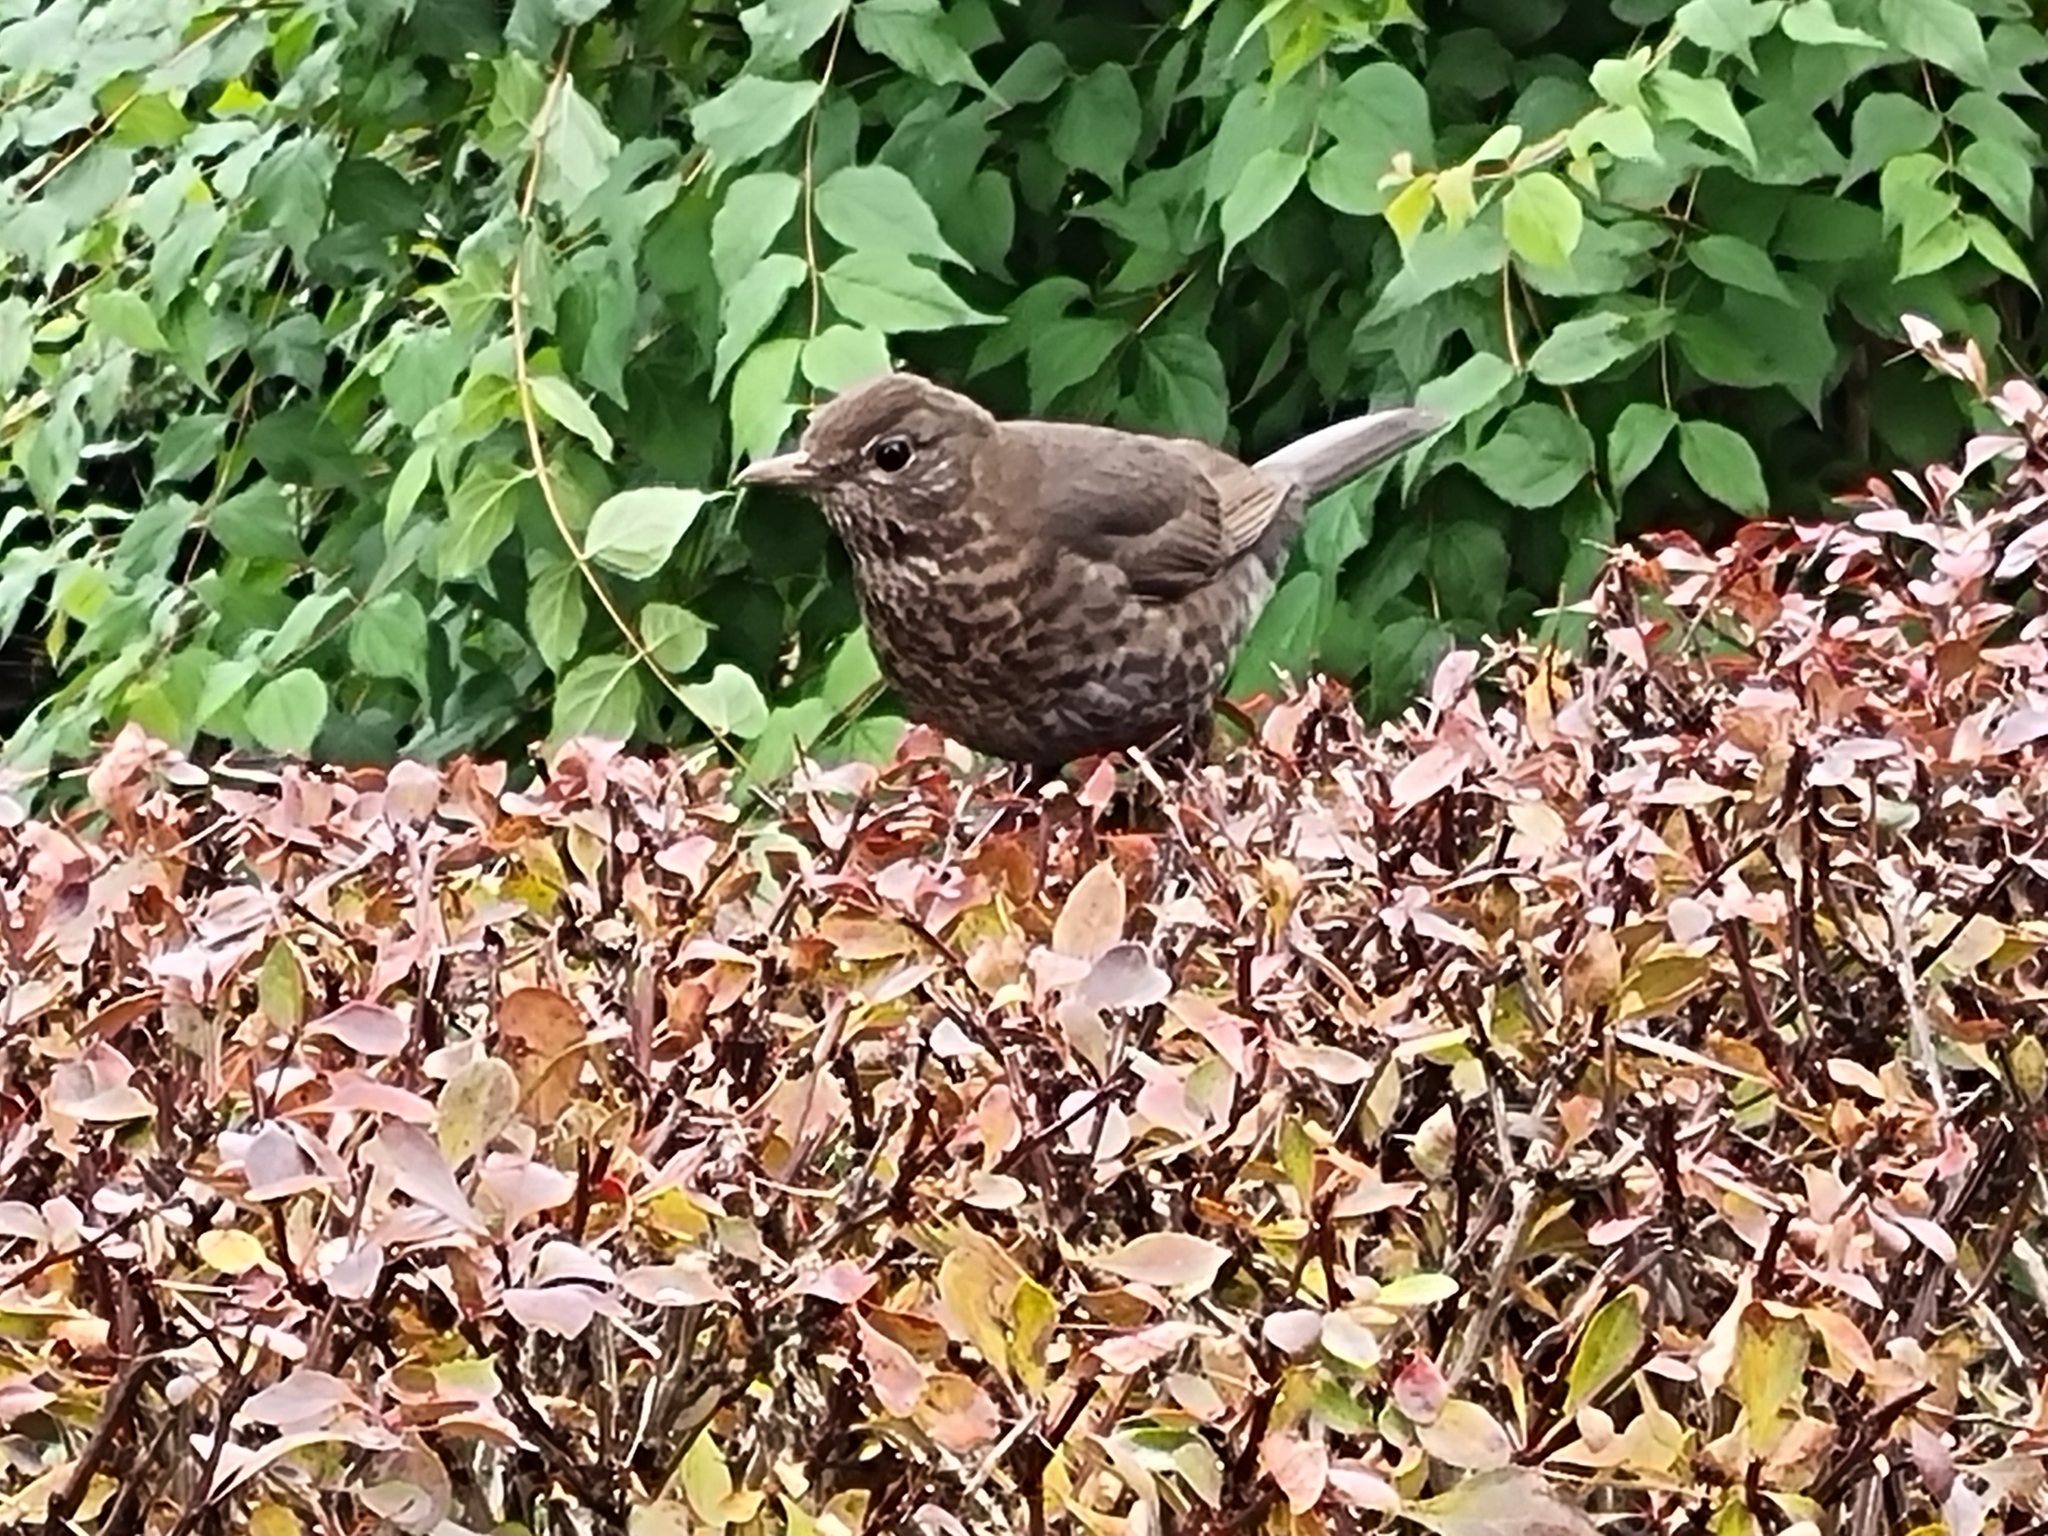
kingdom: Animalia
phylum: Chordata
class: Aves
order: Passeriformes
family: Turdidae
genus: Turdus
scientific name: Turdus merula
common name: Common blackbird
